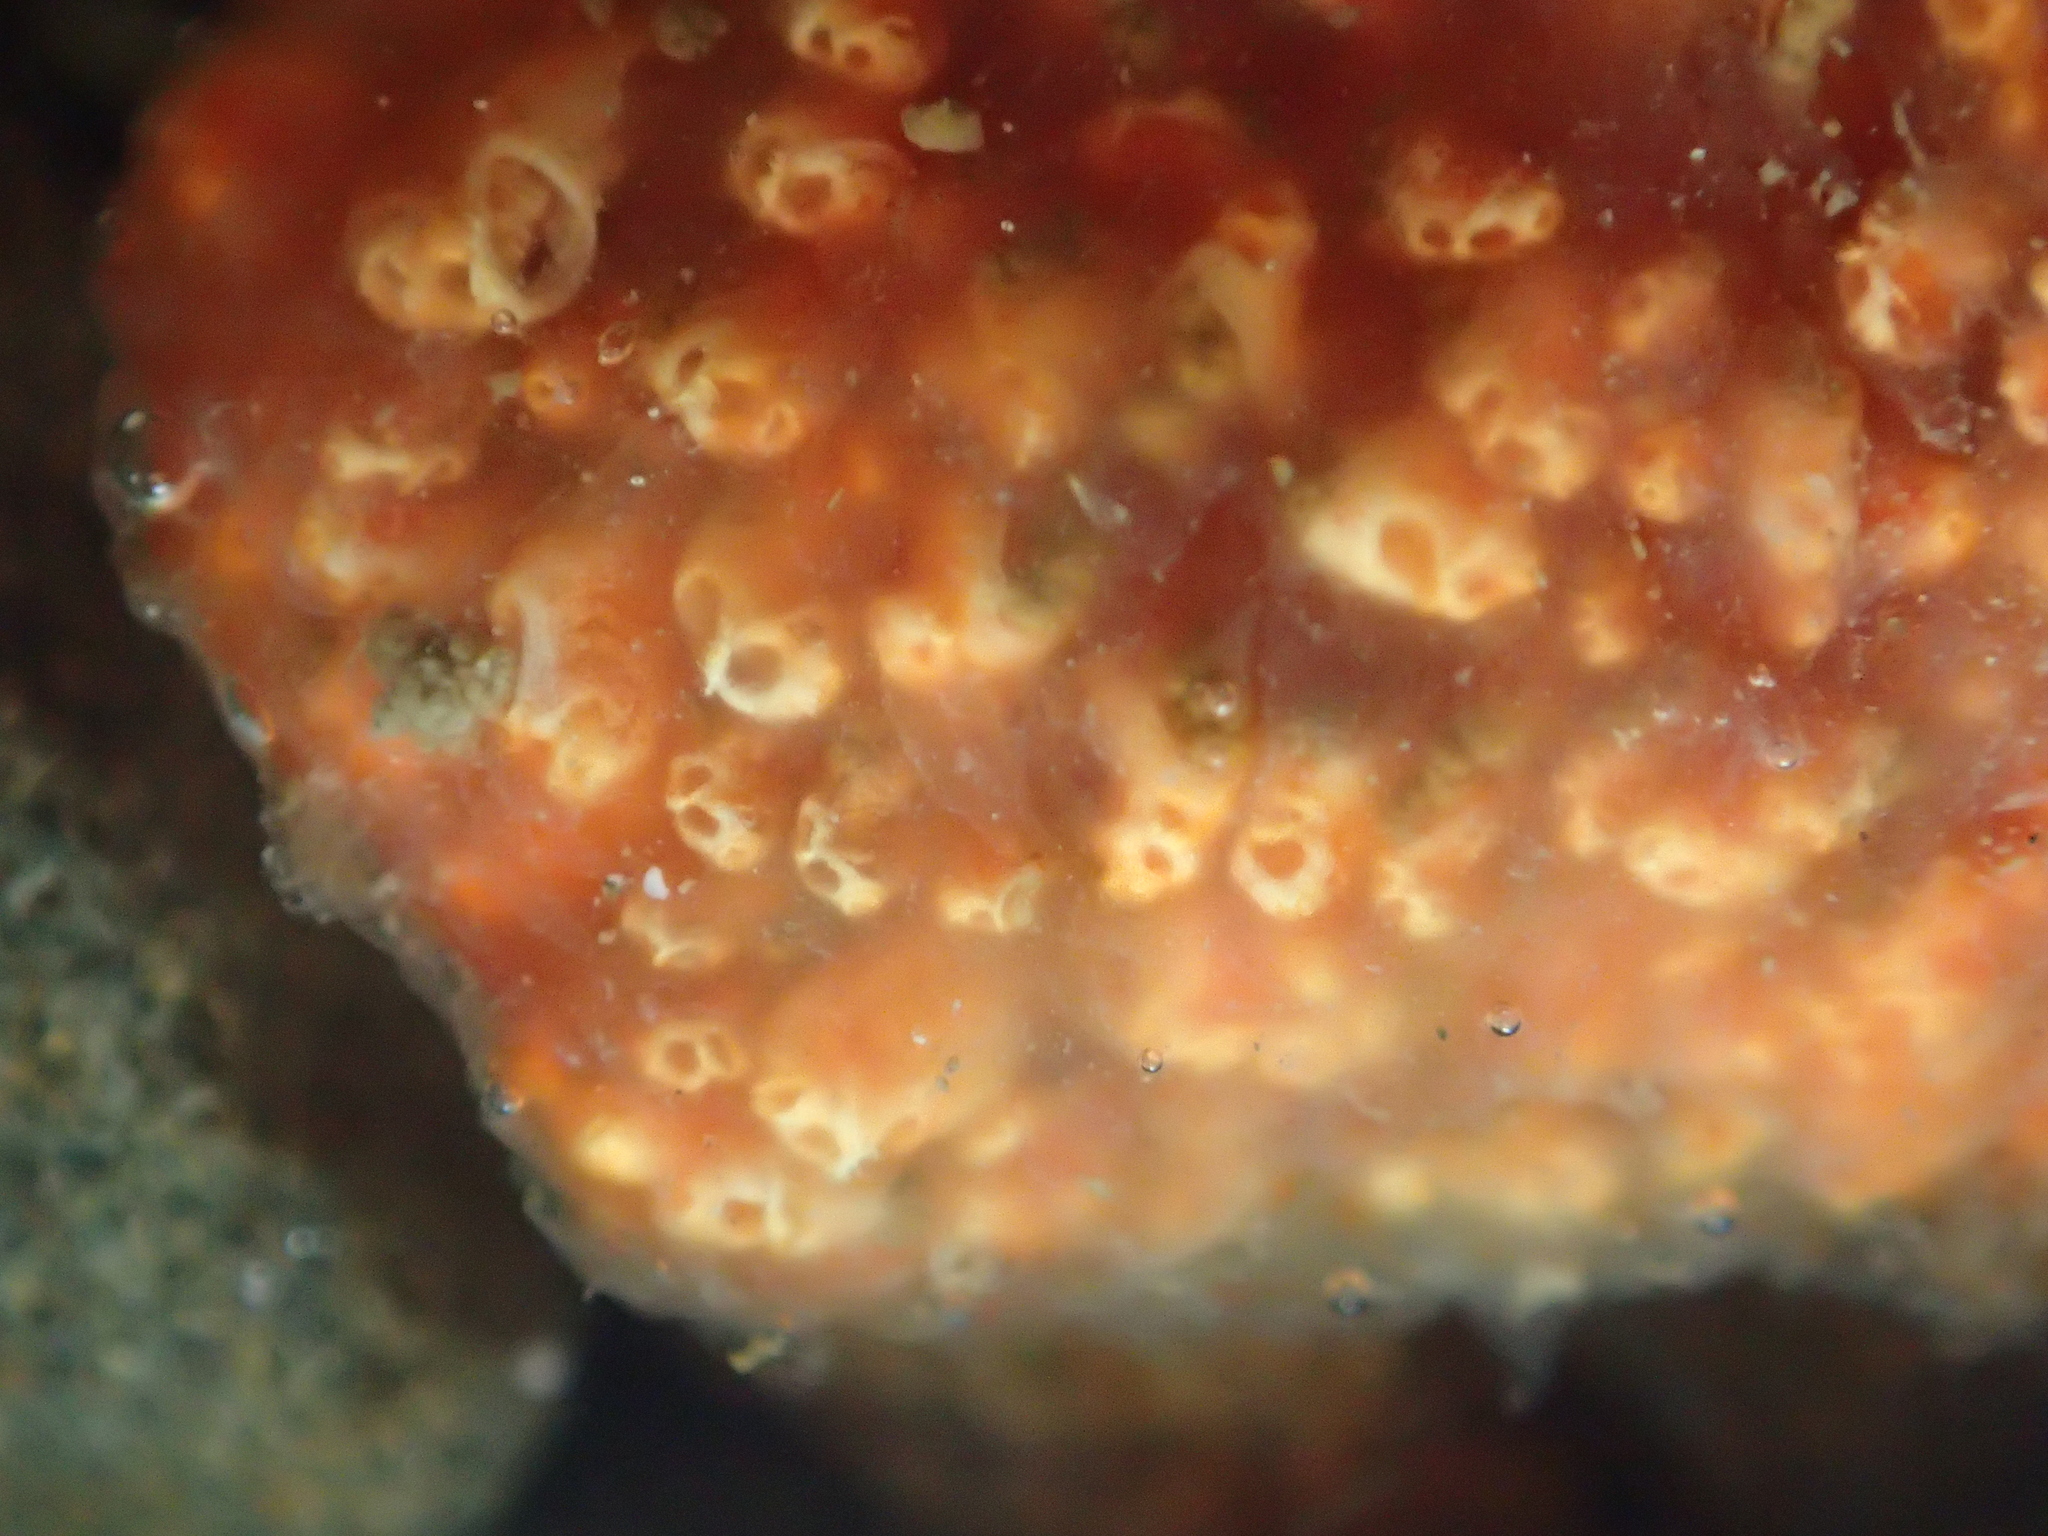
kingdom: Animalia
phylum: Chordata
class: Ascidiacea
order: Aplousobranchia
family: Polyclinidae
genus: Aplidium
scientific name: Aplidium benhami
